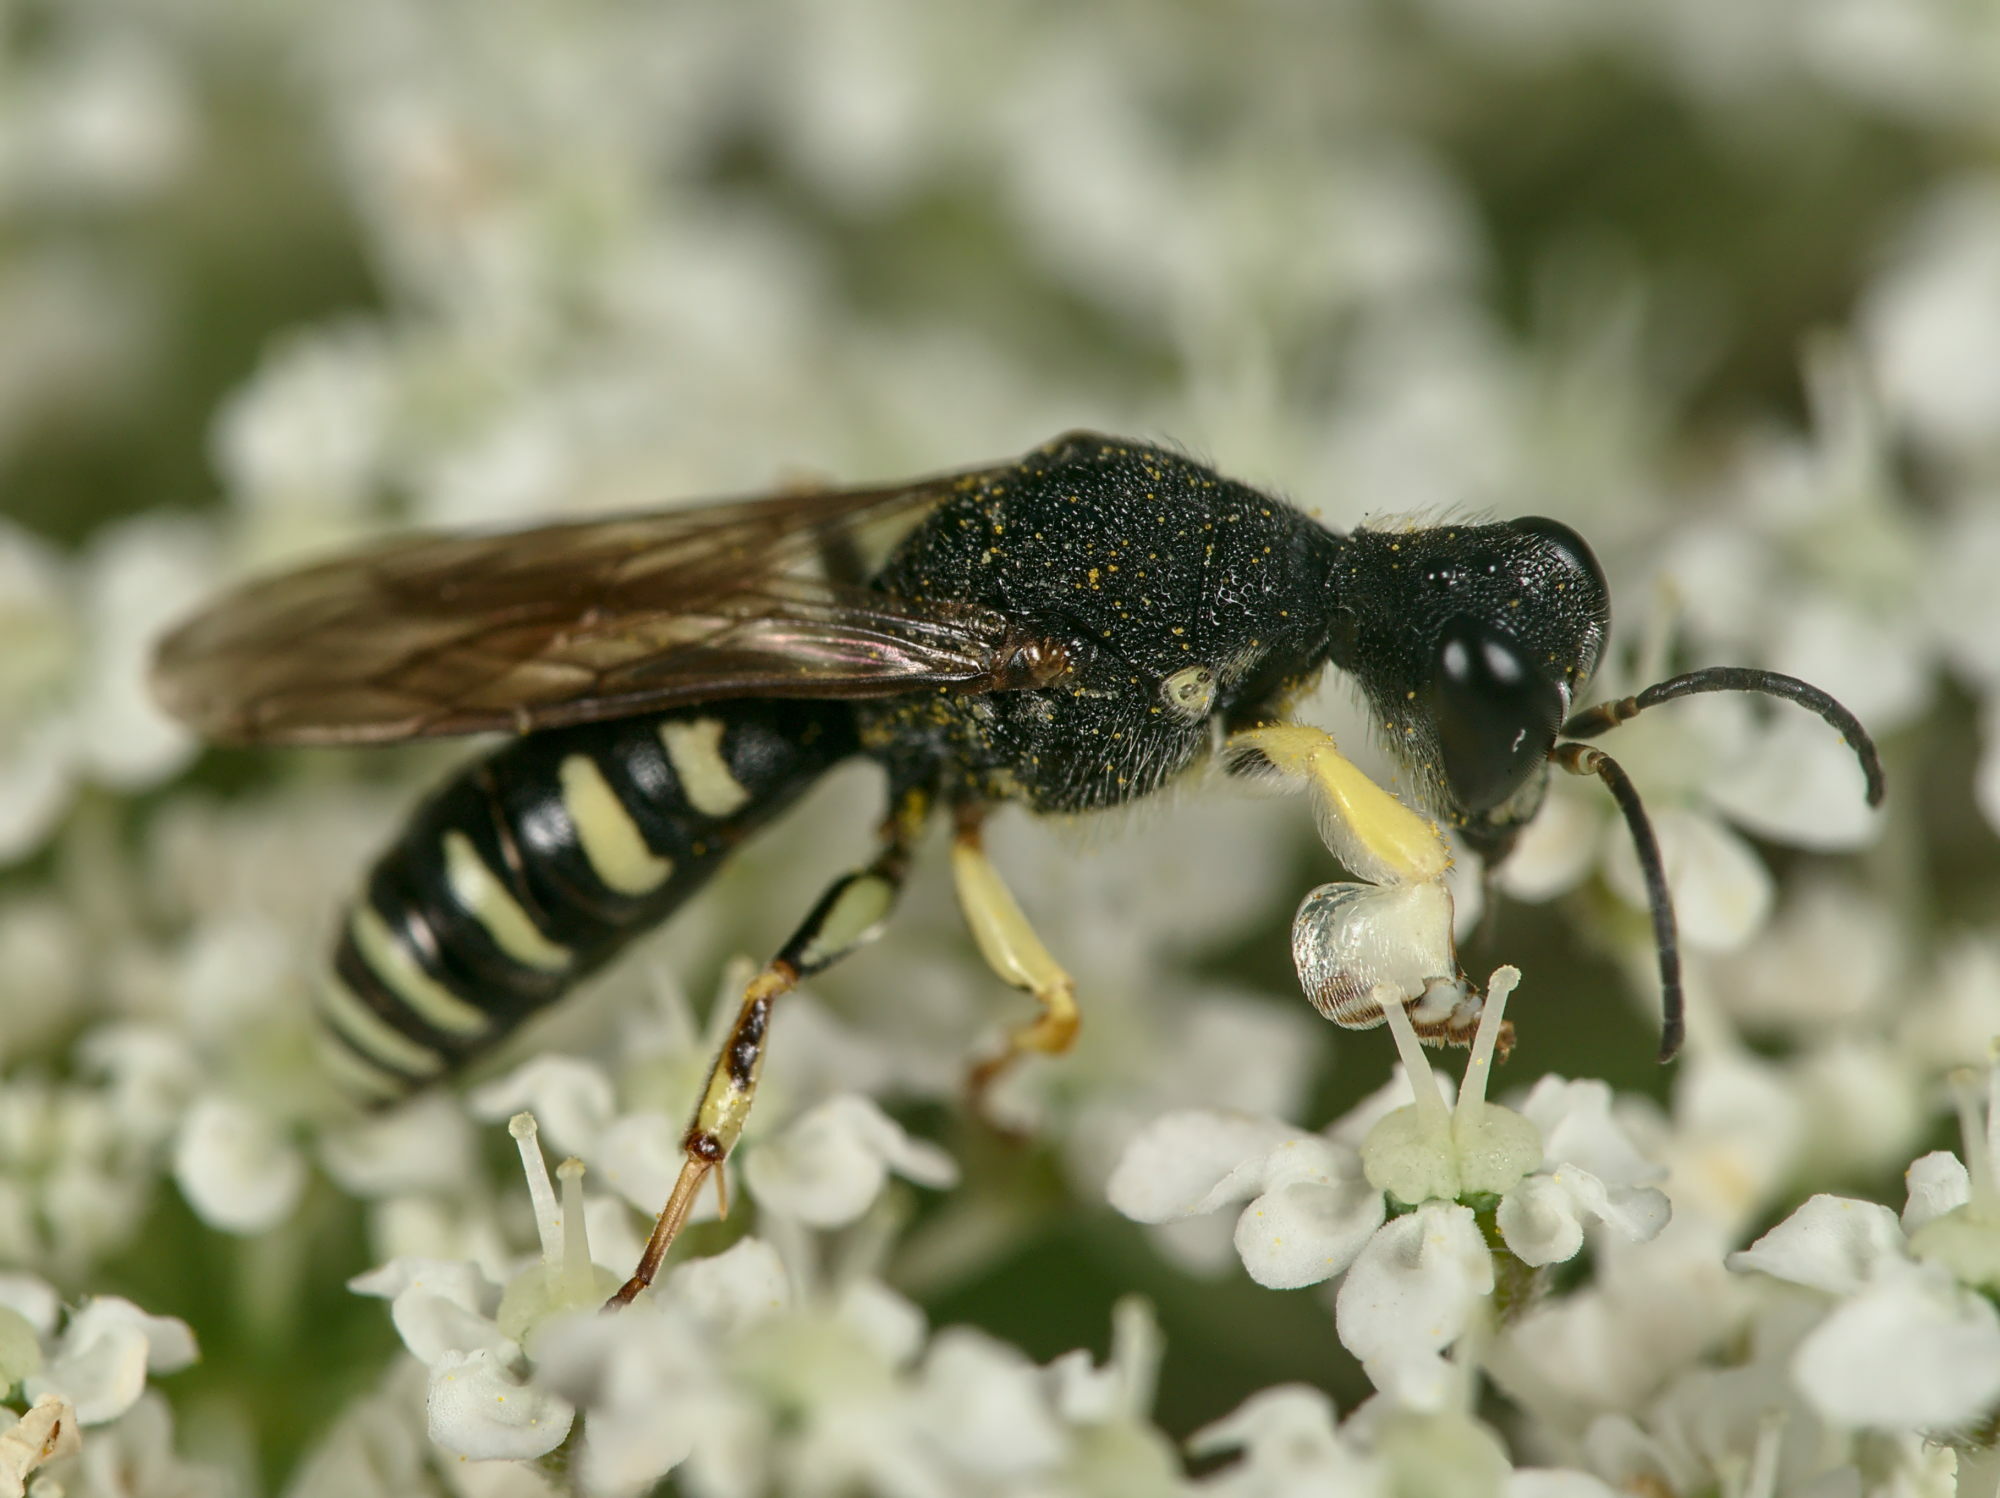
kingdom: Animalia
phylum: Arthropoda
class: Insecta
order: Hymenoptera
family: Crabronidae
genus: Lestica
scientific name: Lestica clypeata
